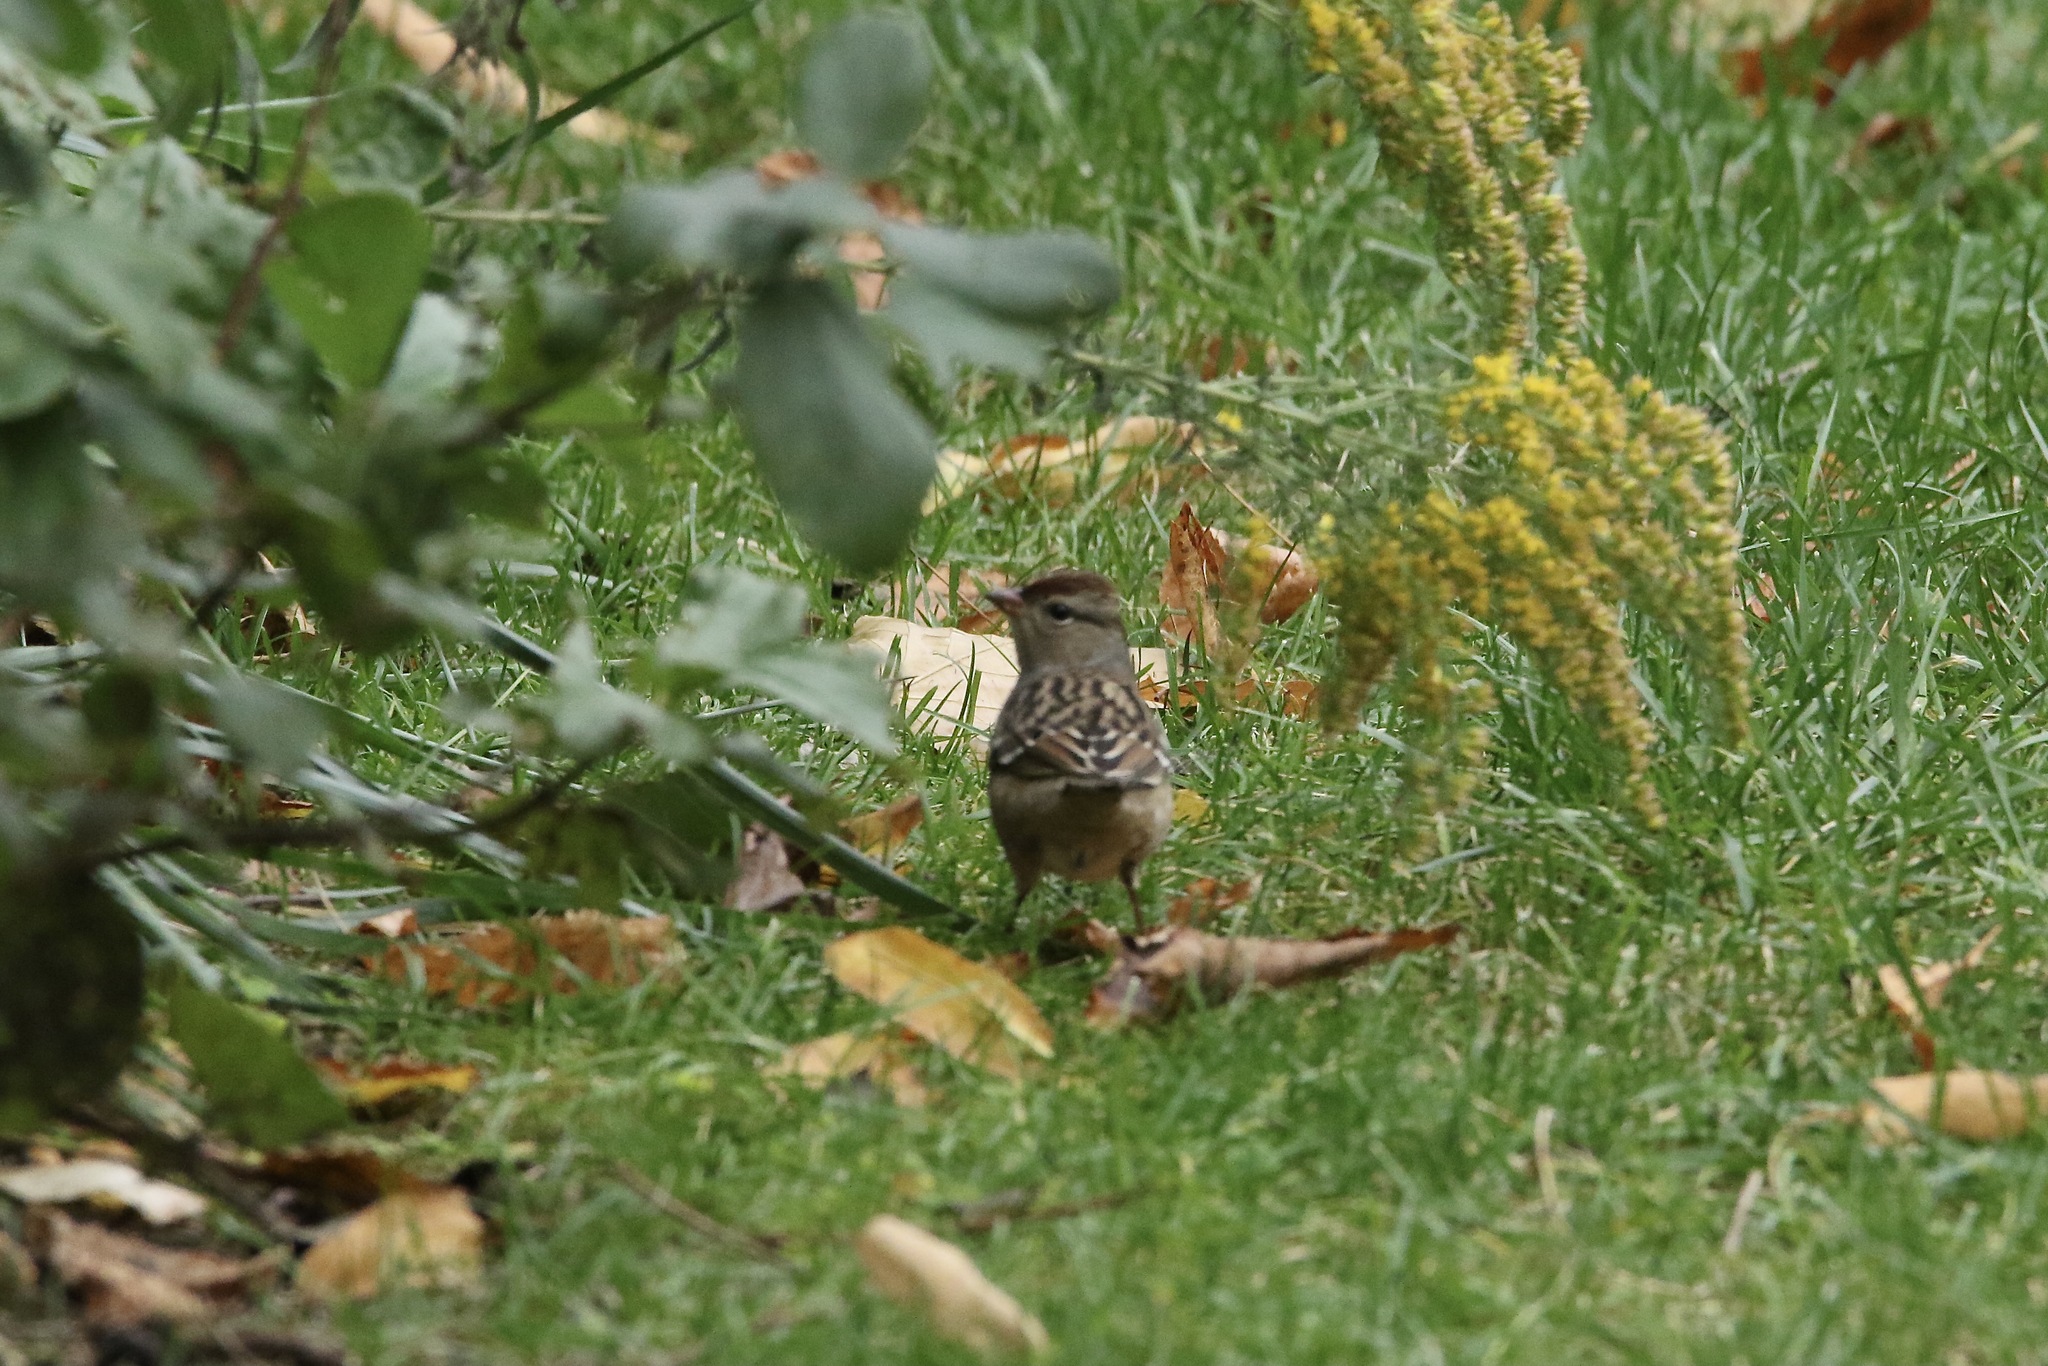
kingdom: Animalia
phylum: Chordata
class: Aves
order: Passeriformes
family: Passerellidae
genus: Zonotrichia
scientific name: Zonotrichia leucophrys
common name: White-crowned sparrow
